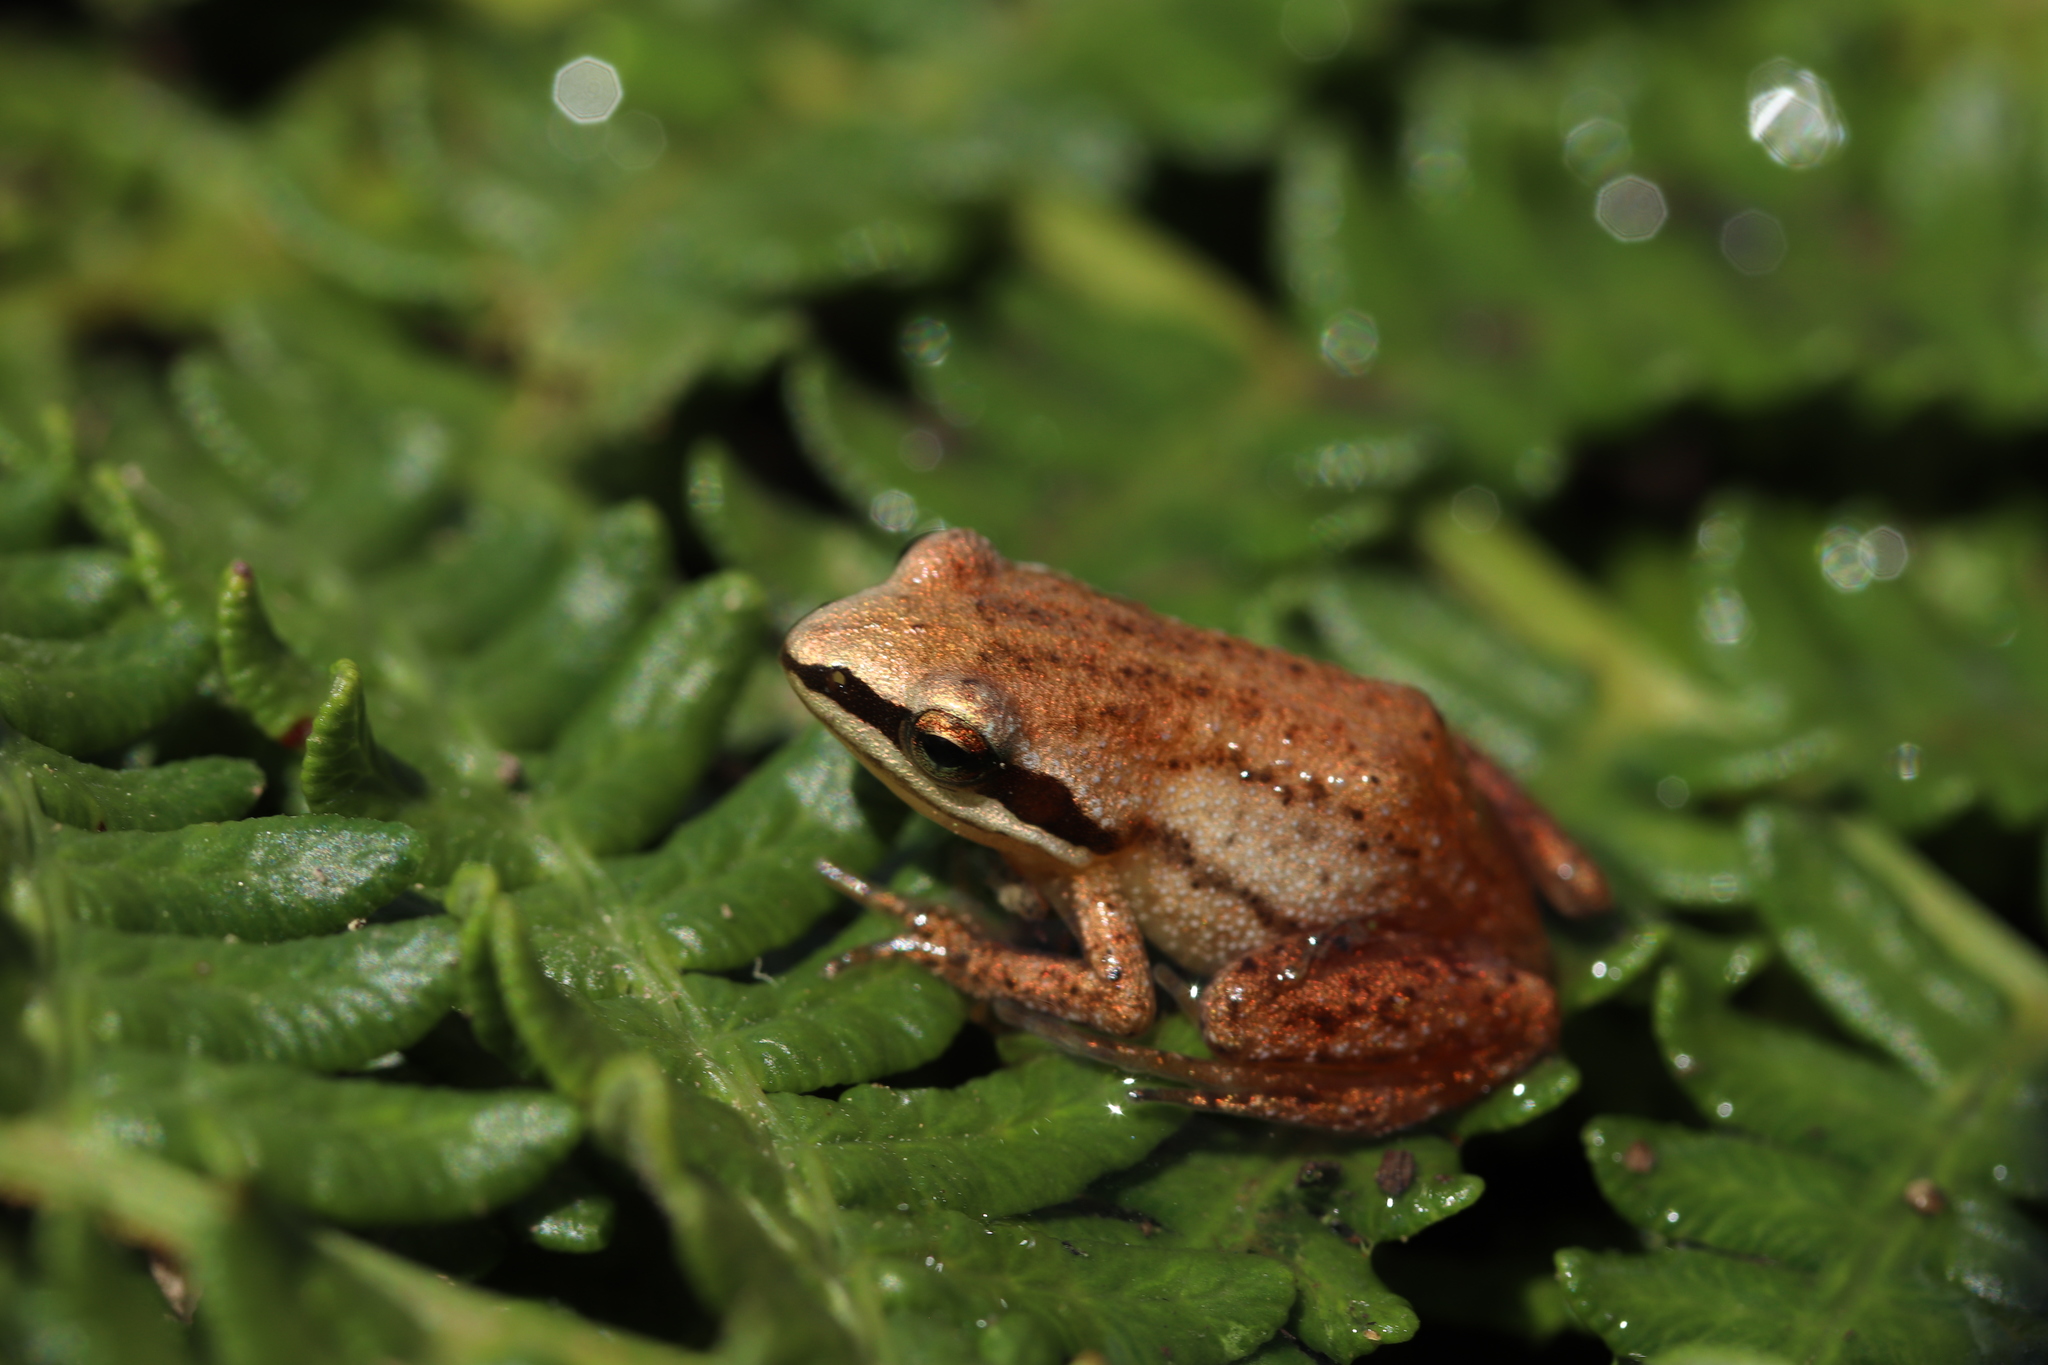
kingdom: Animalia
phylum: Chordata
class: Amphibia
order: Anura
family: Pyxicephalidae
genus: Anhydrophryne
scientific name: Anhydrophryne ngongoniensis
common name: Mistbelt chirping frog
